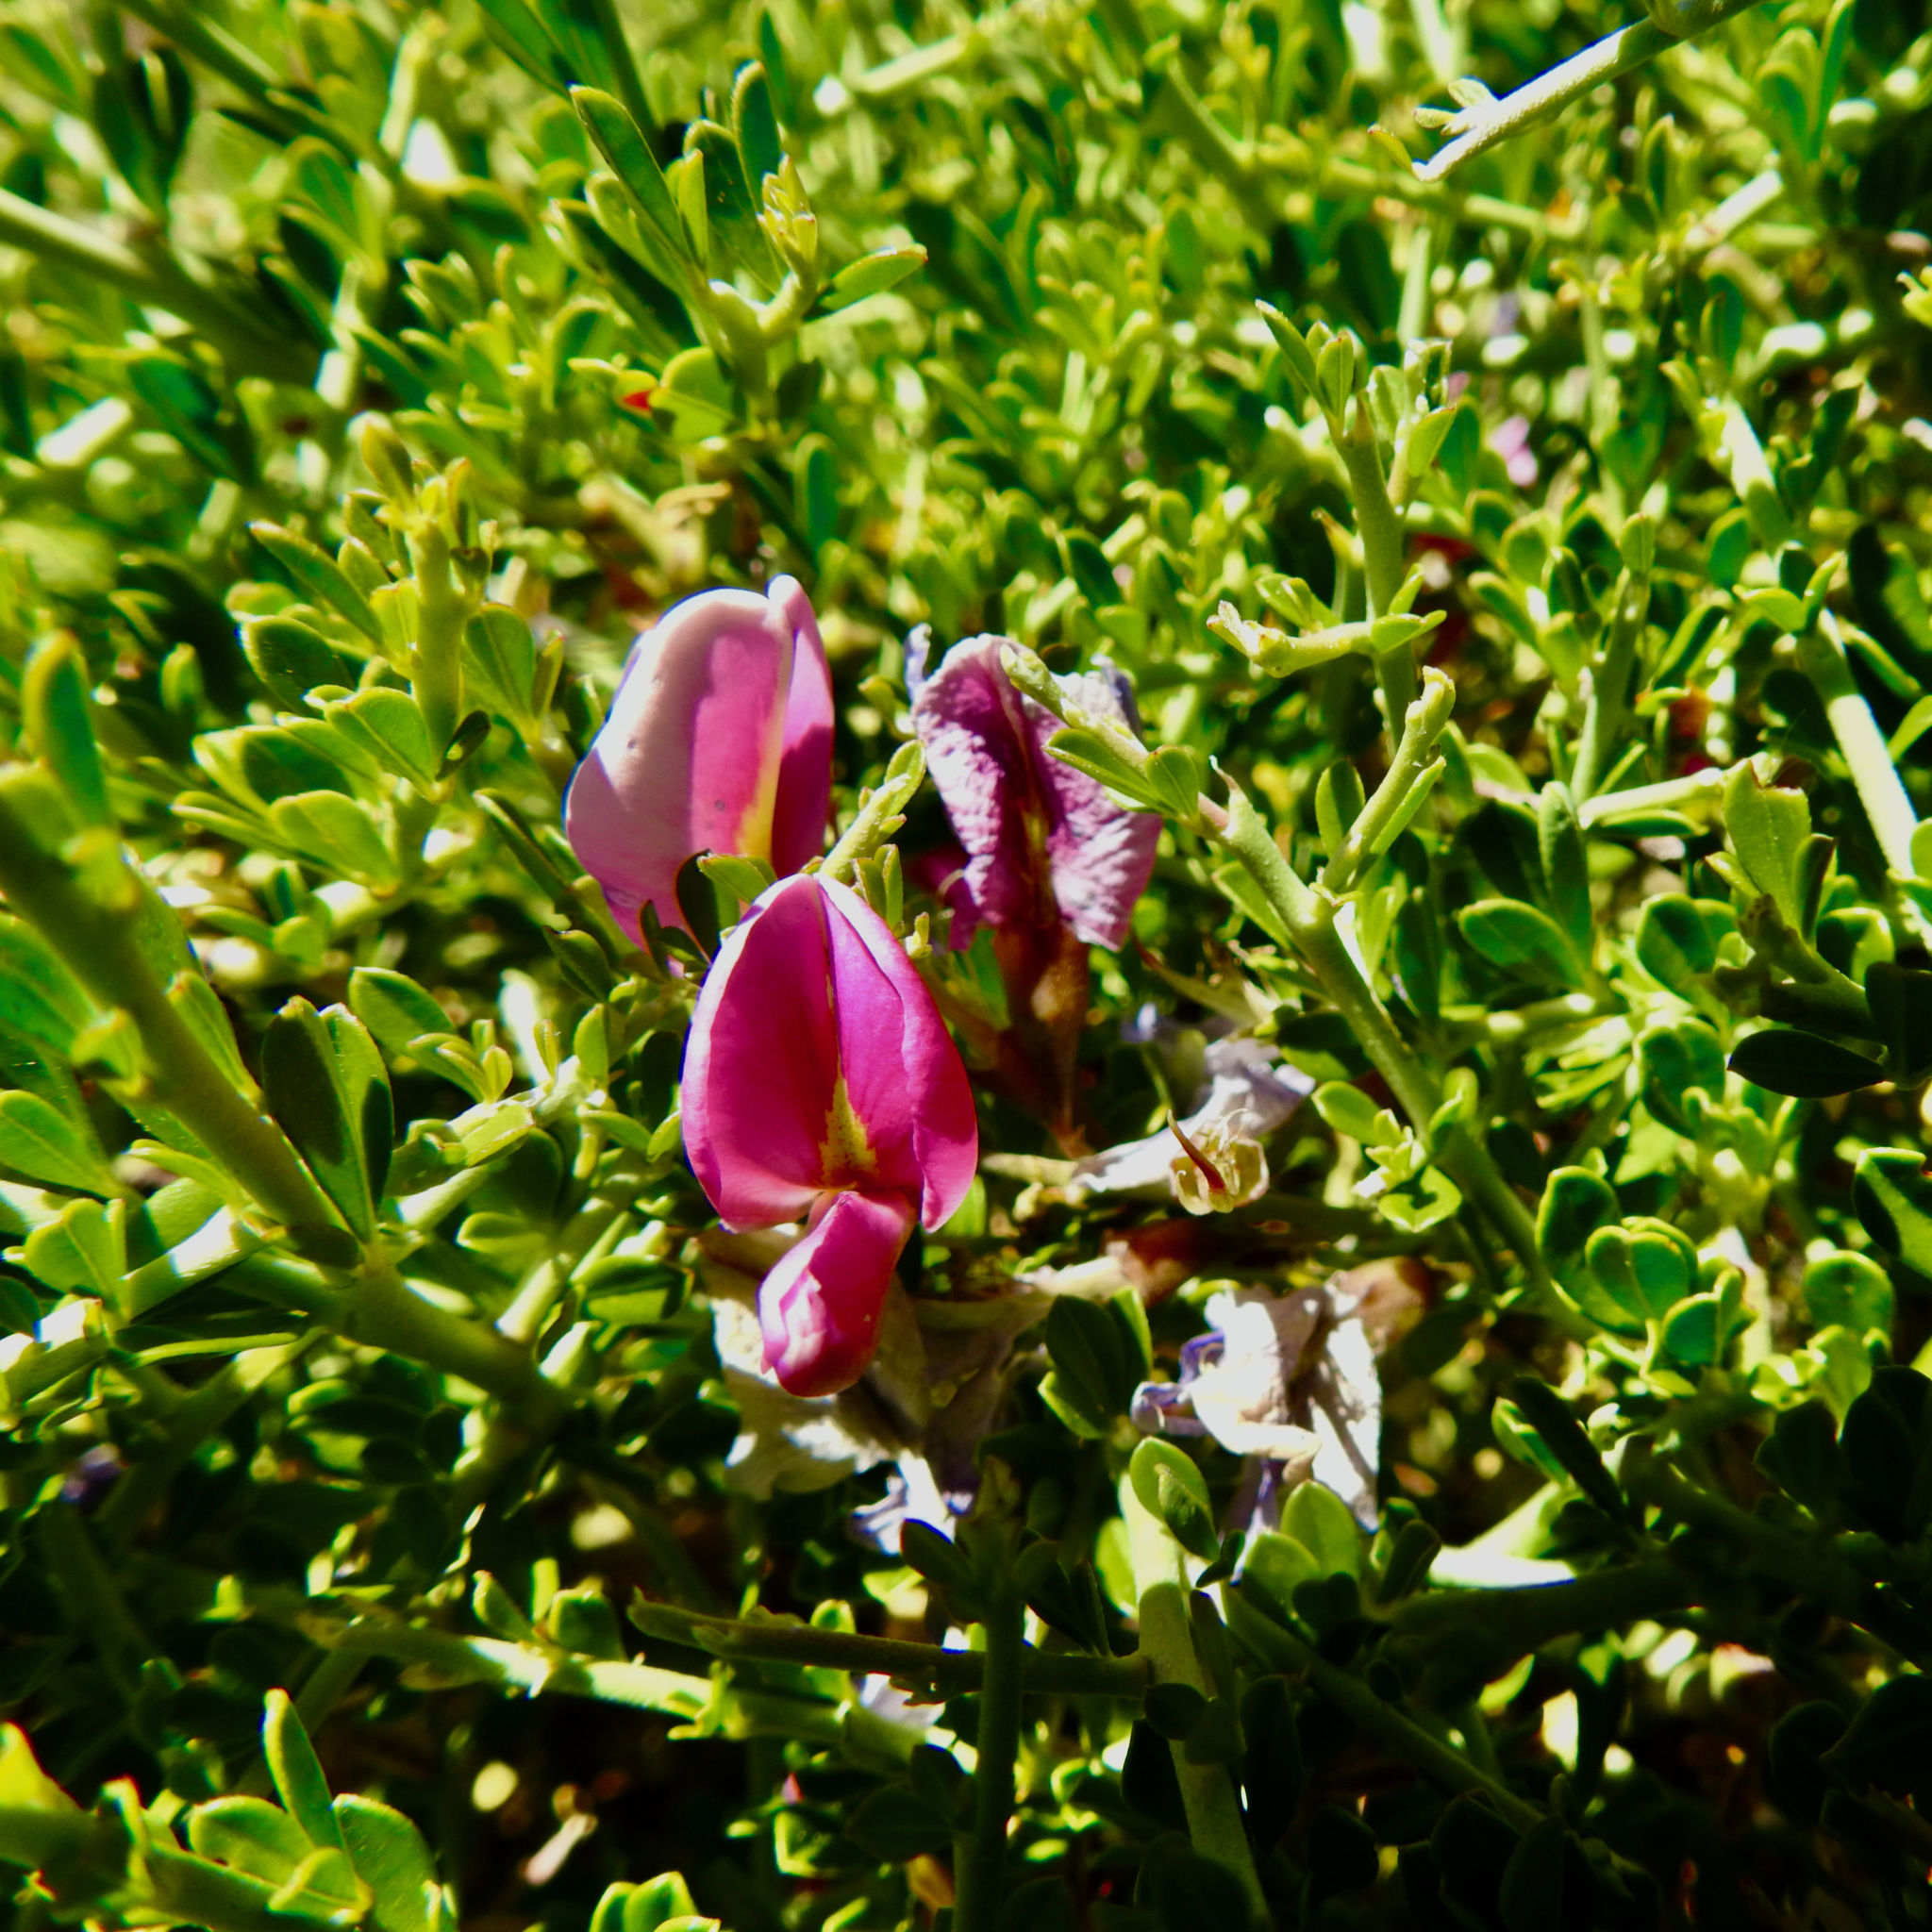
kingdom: Plantae
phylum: Tracheophyta
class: Magnoliopsida
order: Fabales
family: Fabaceae
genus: Pickeringia
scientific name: Pickeringia montana
